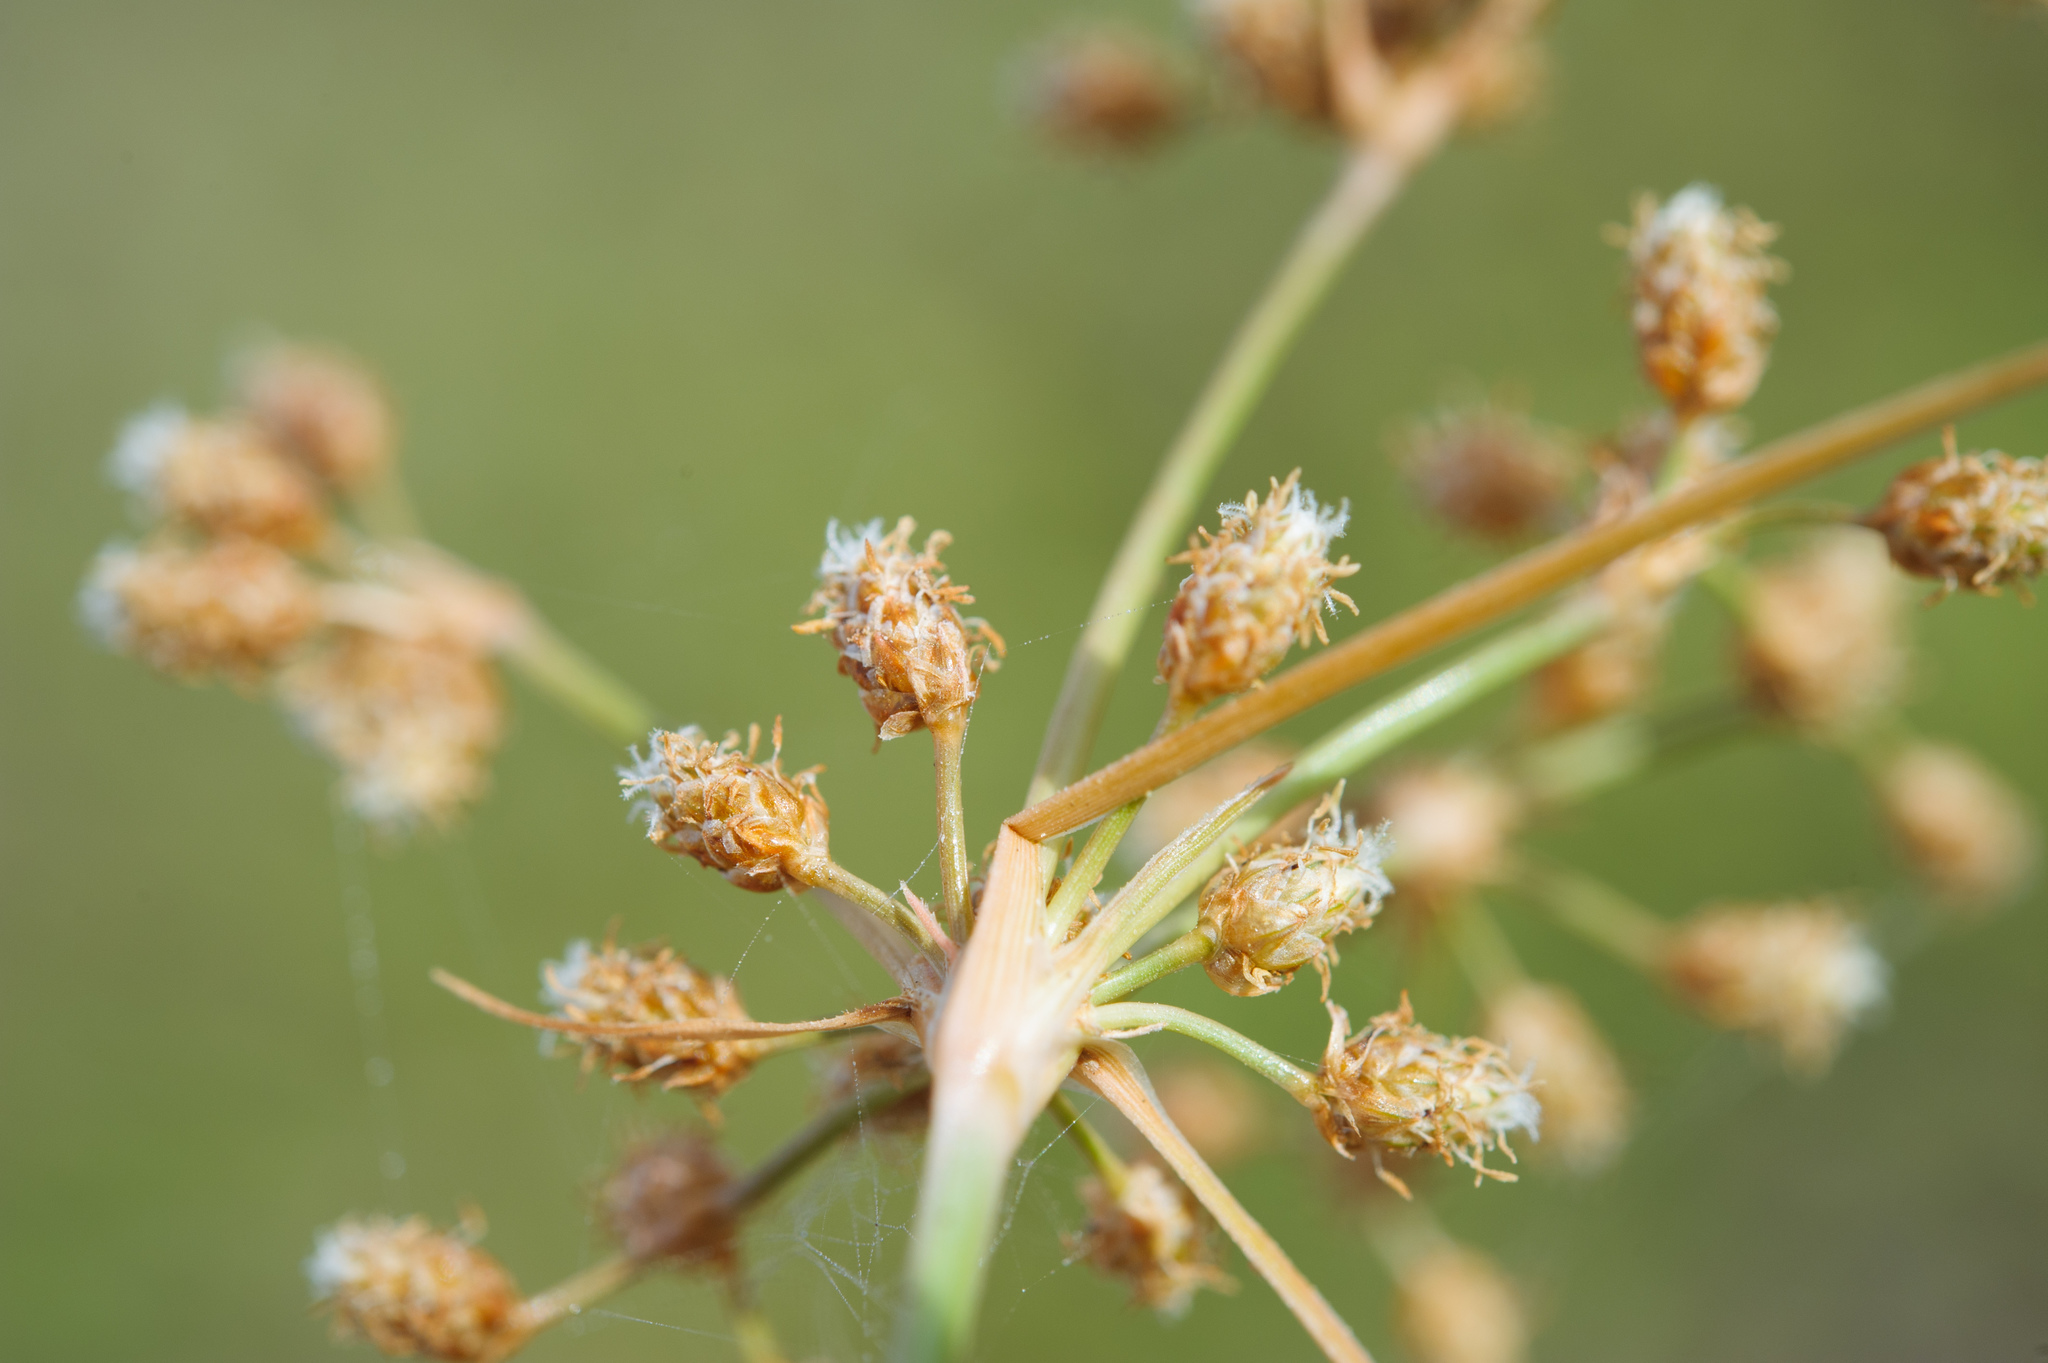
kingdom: Plantae
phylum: Tracheophyta
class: Liliopsida
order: Poales
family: Cyperaceae
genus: Fimbristylis
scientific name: Fimbristylis cymosa
